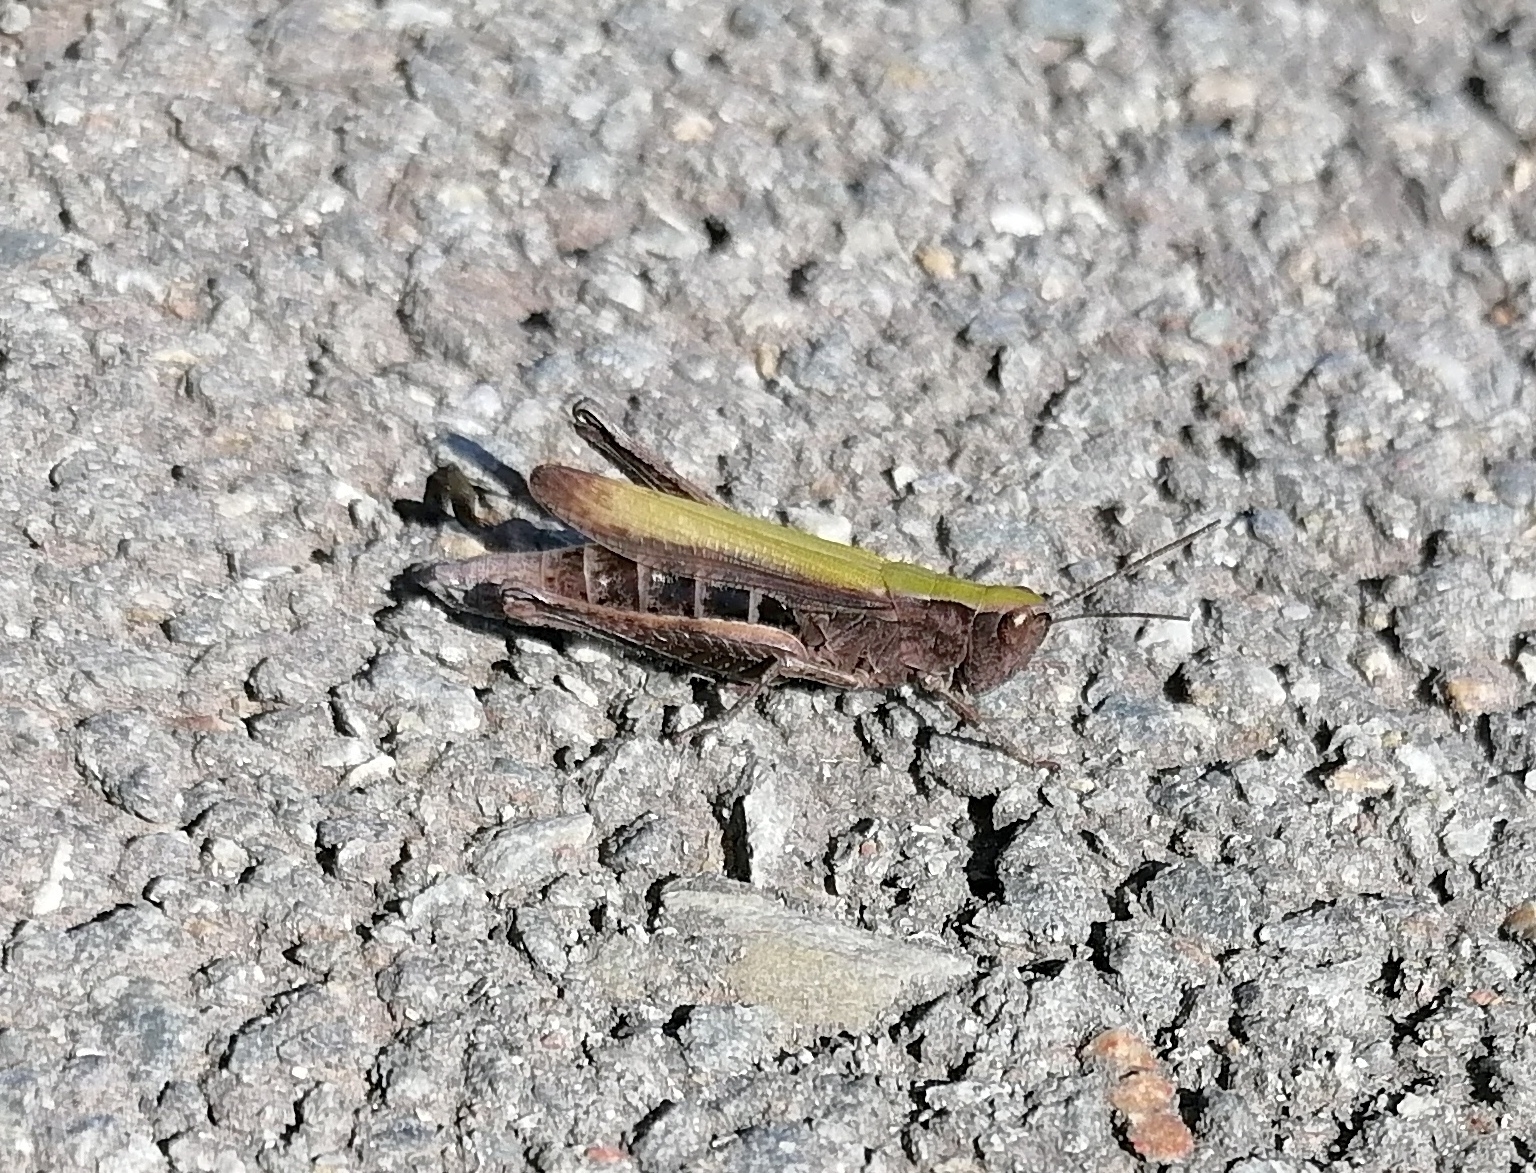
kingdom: Animalia
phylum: Arthropoda
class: Insecta
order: Orthoptera
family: Acrididae
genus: Chorthippus
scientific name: Chorthippus dorsatus
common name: Steppe grasshopper
